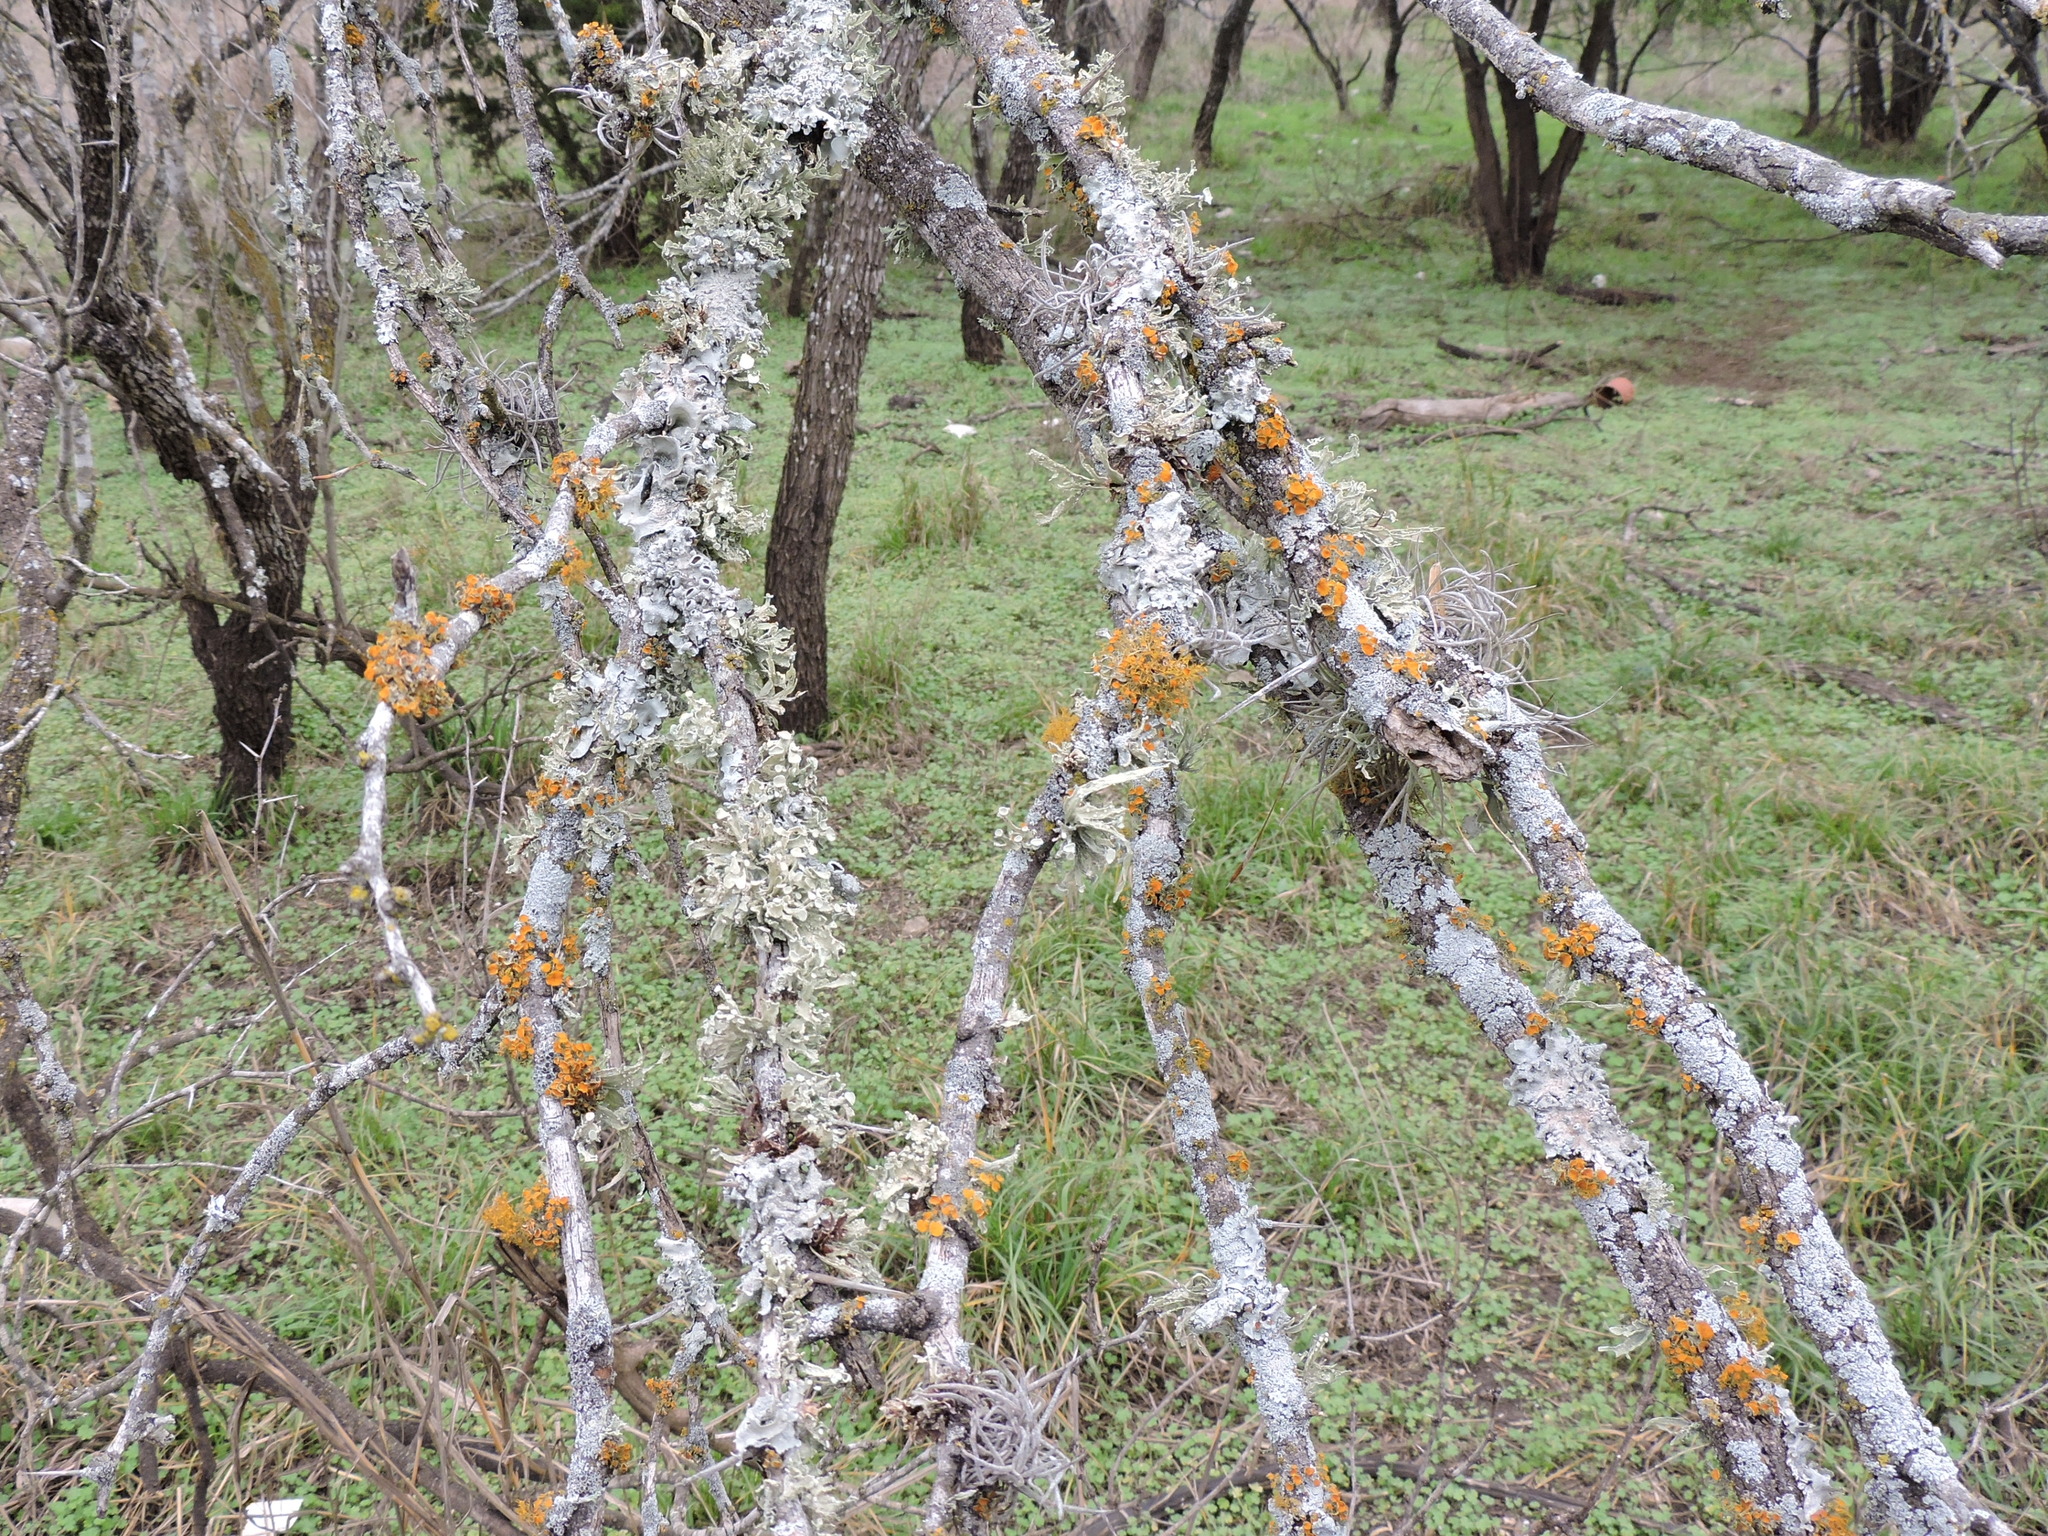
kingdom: Fungi
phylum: Ascomycota
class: Lecanoromycetes
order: Lecanorales
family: Parmeliaceae
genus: Punctelia
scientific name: Punctelia bolliana
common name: Eastern speckled shield lichen
